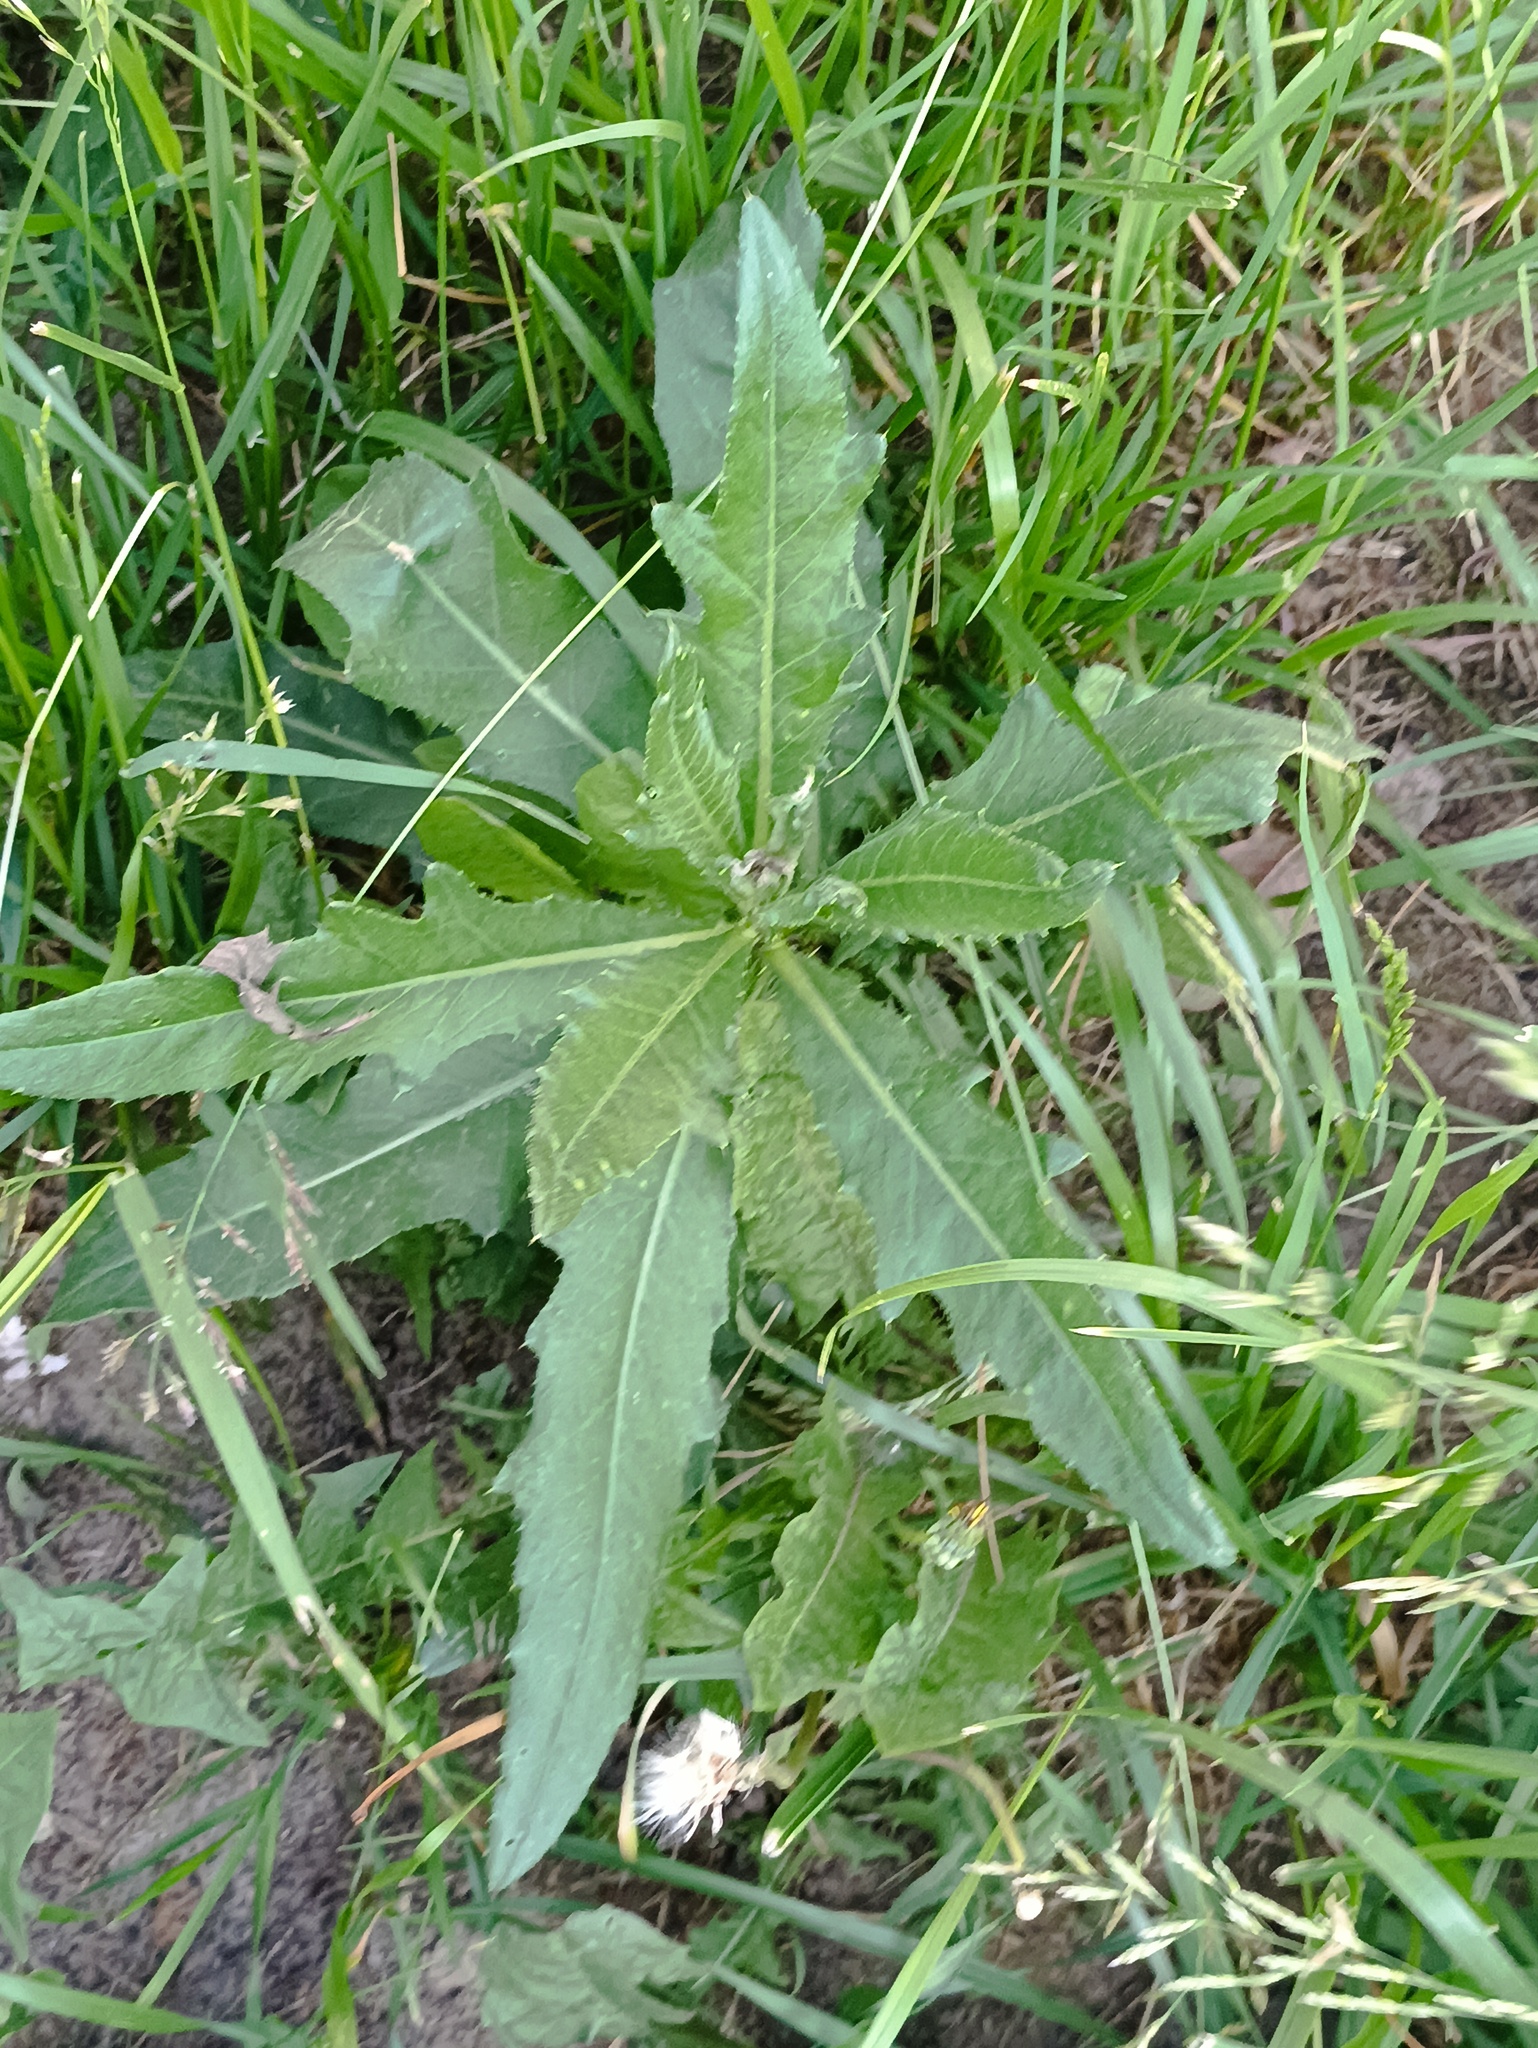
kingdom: Plantae
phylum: Tracheophyta
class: Magnoliopsida
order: Asterales
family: Asteraceae
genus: Cirsium
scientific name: Cirsium arvense
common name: Creeping thistle
